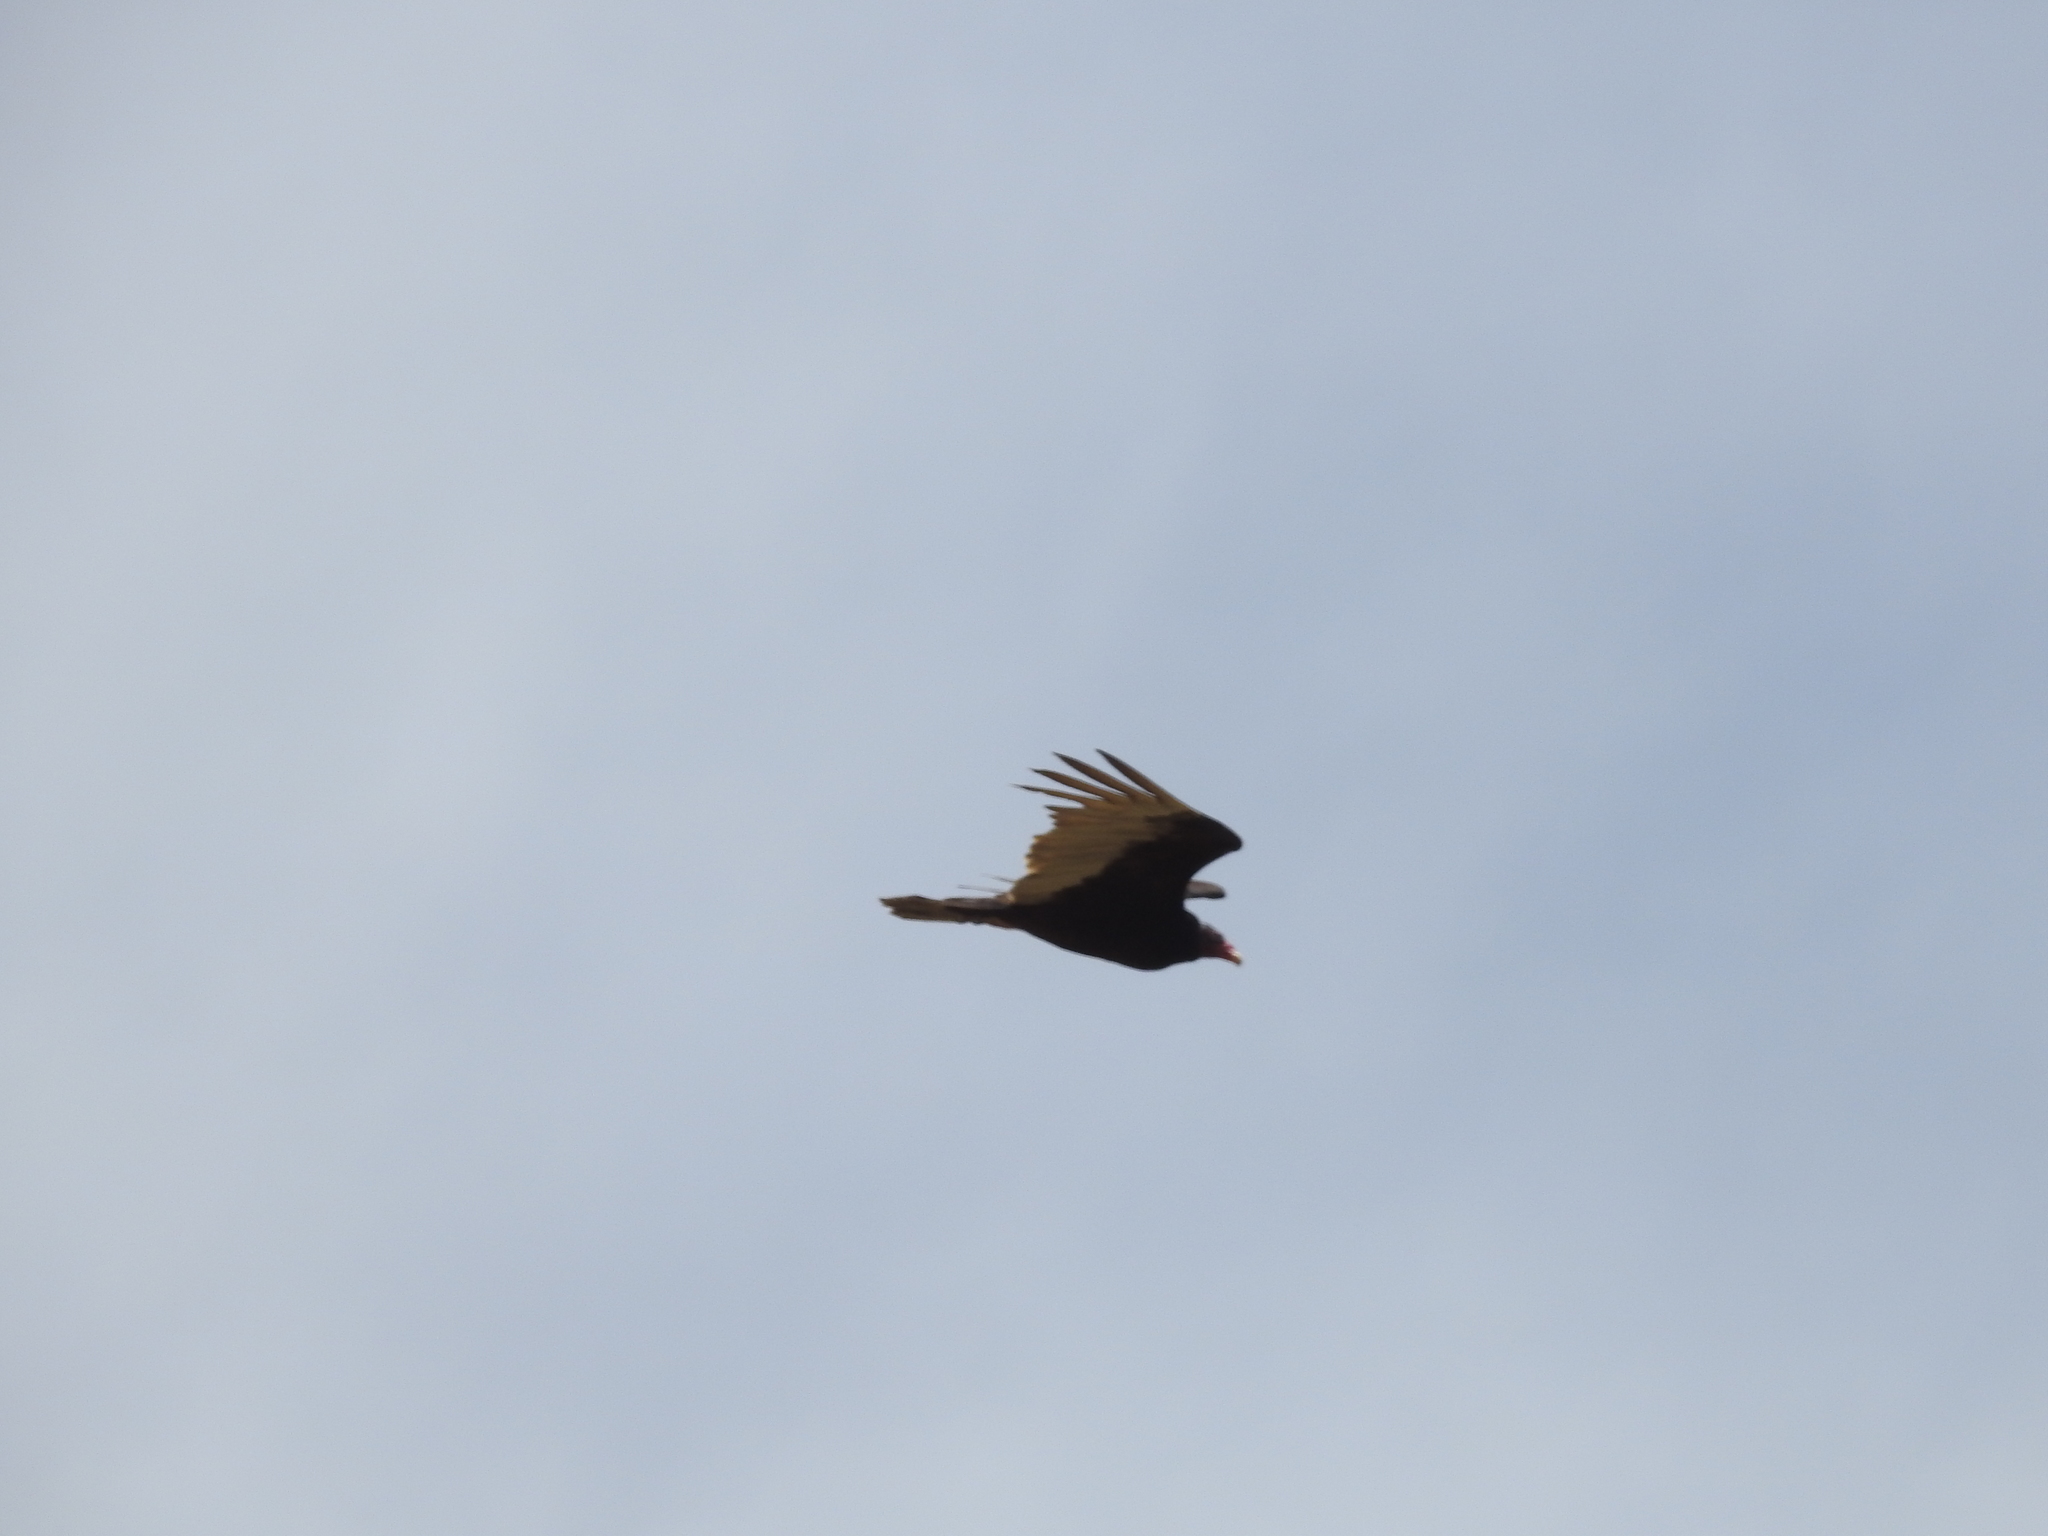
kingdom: Animalia
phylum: Chordata
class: Aves
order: Accipitriformes
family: Cathartidae
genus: Cathartes
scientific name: Cathartes aura
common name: Turkey vulture
